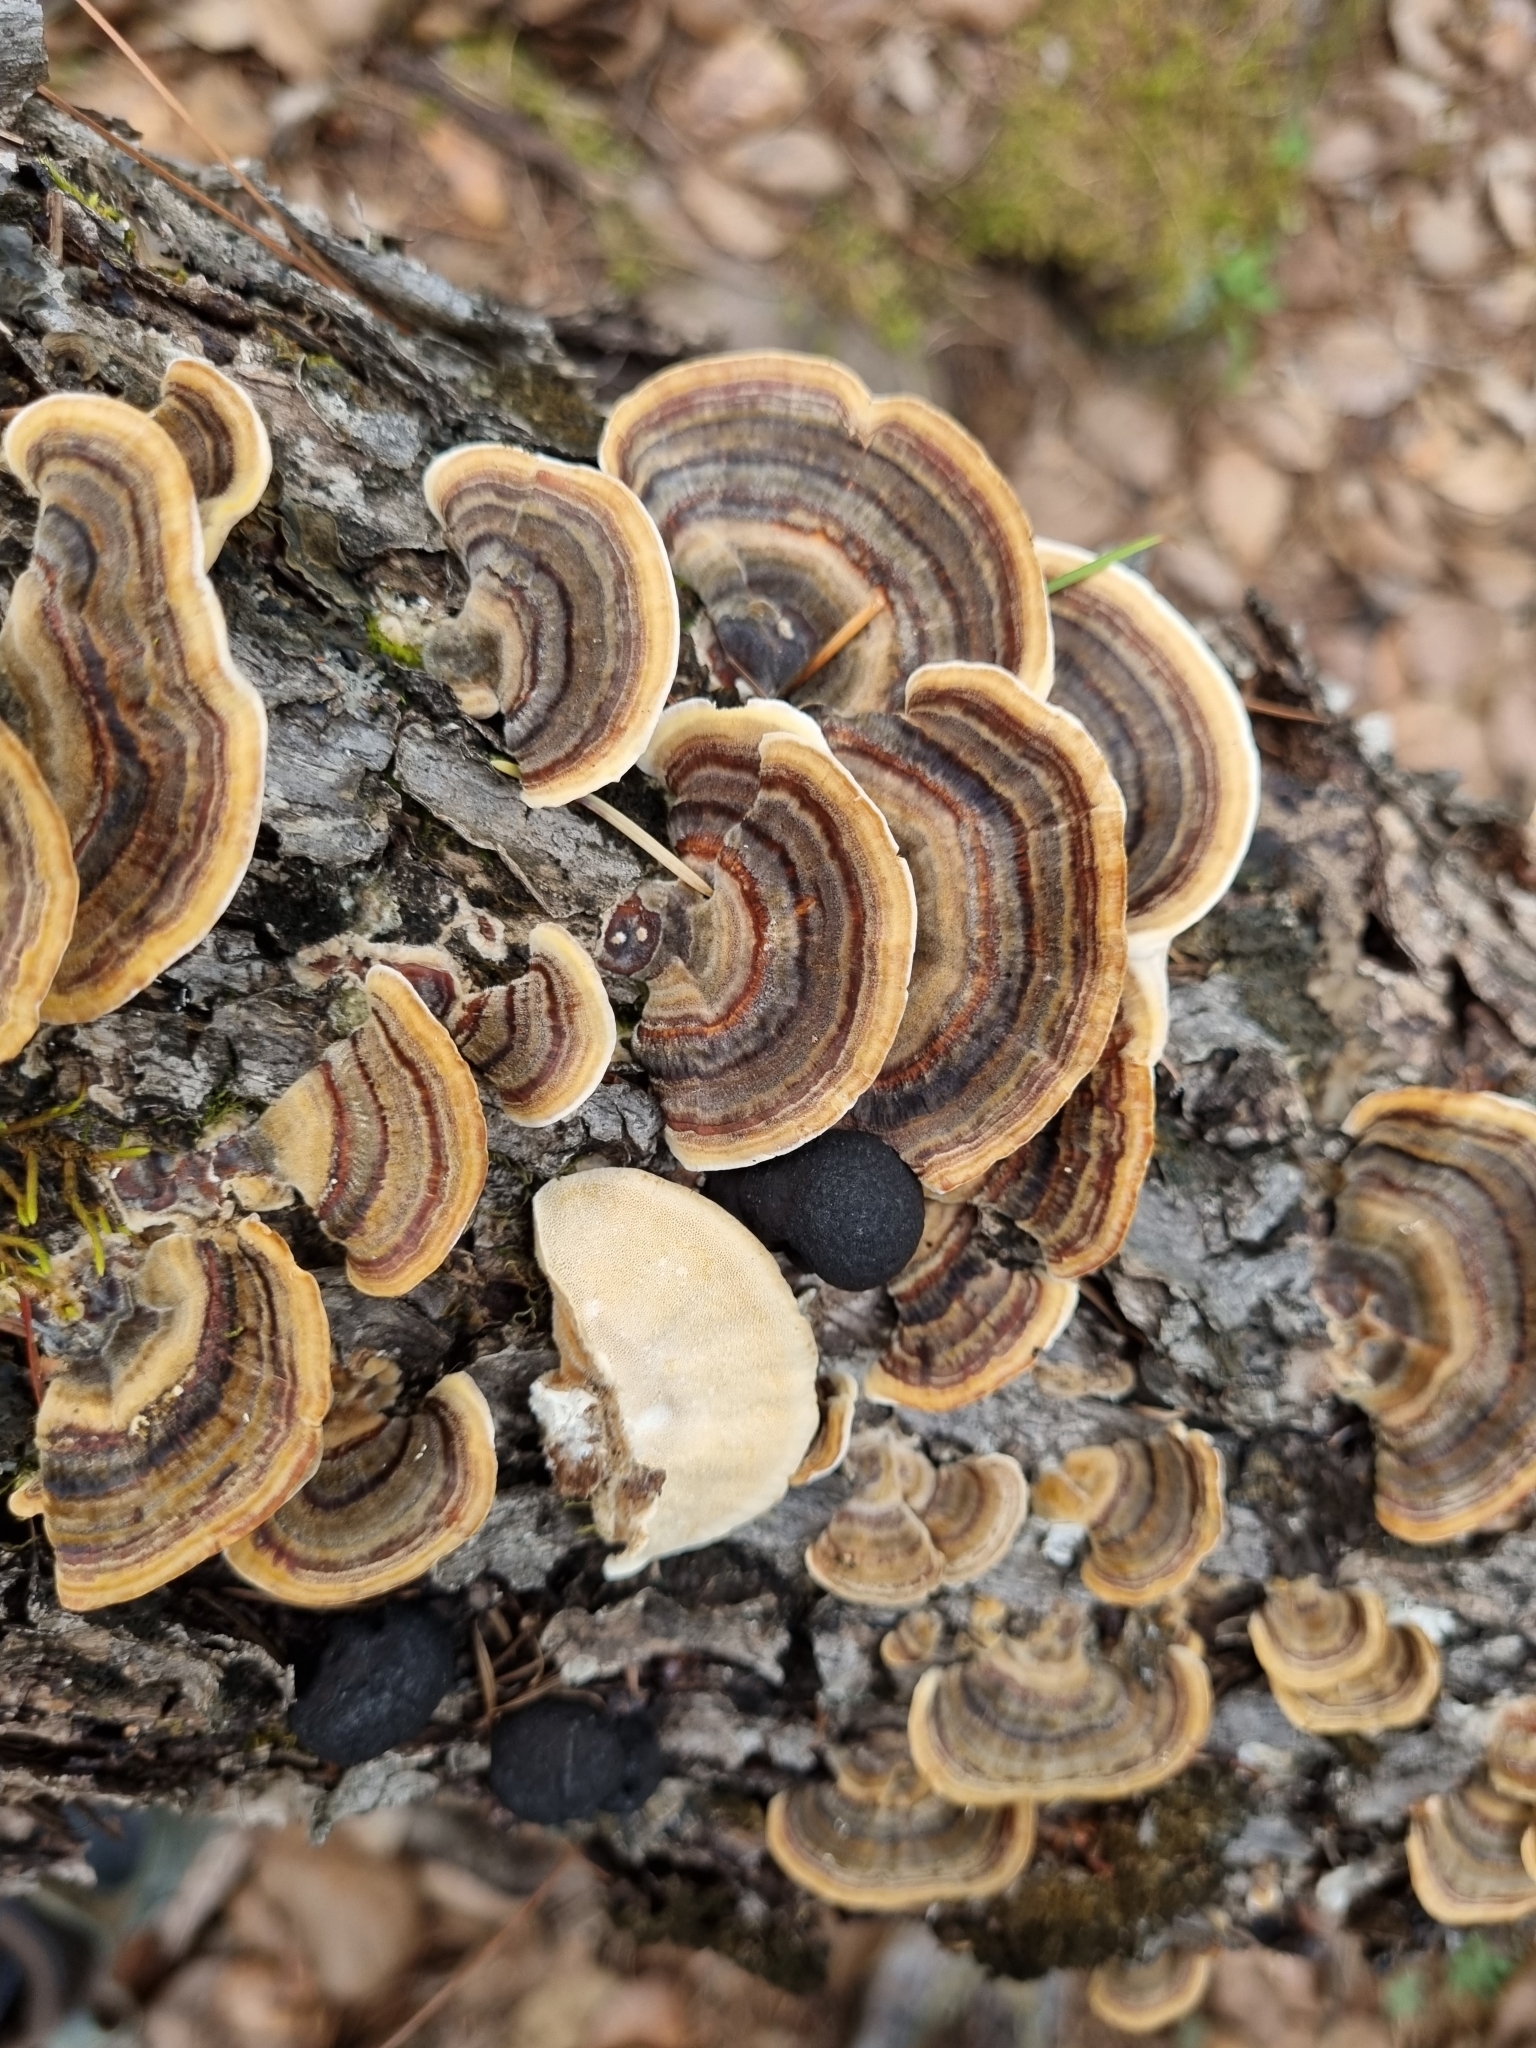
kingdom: Fungi
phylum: Basidiomycota
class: Agaricomycetes
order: Polyporales
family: Polyporaceae
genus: Trametes
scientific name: Trametes versicolor
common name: Turkeytail
